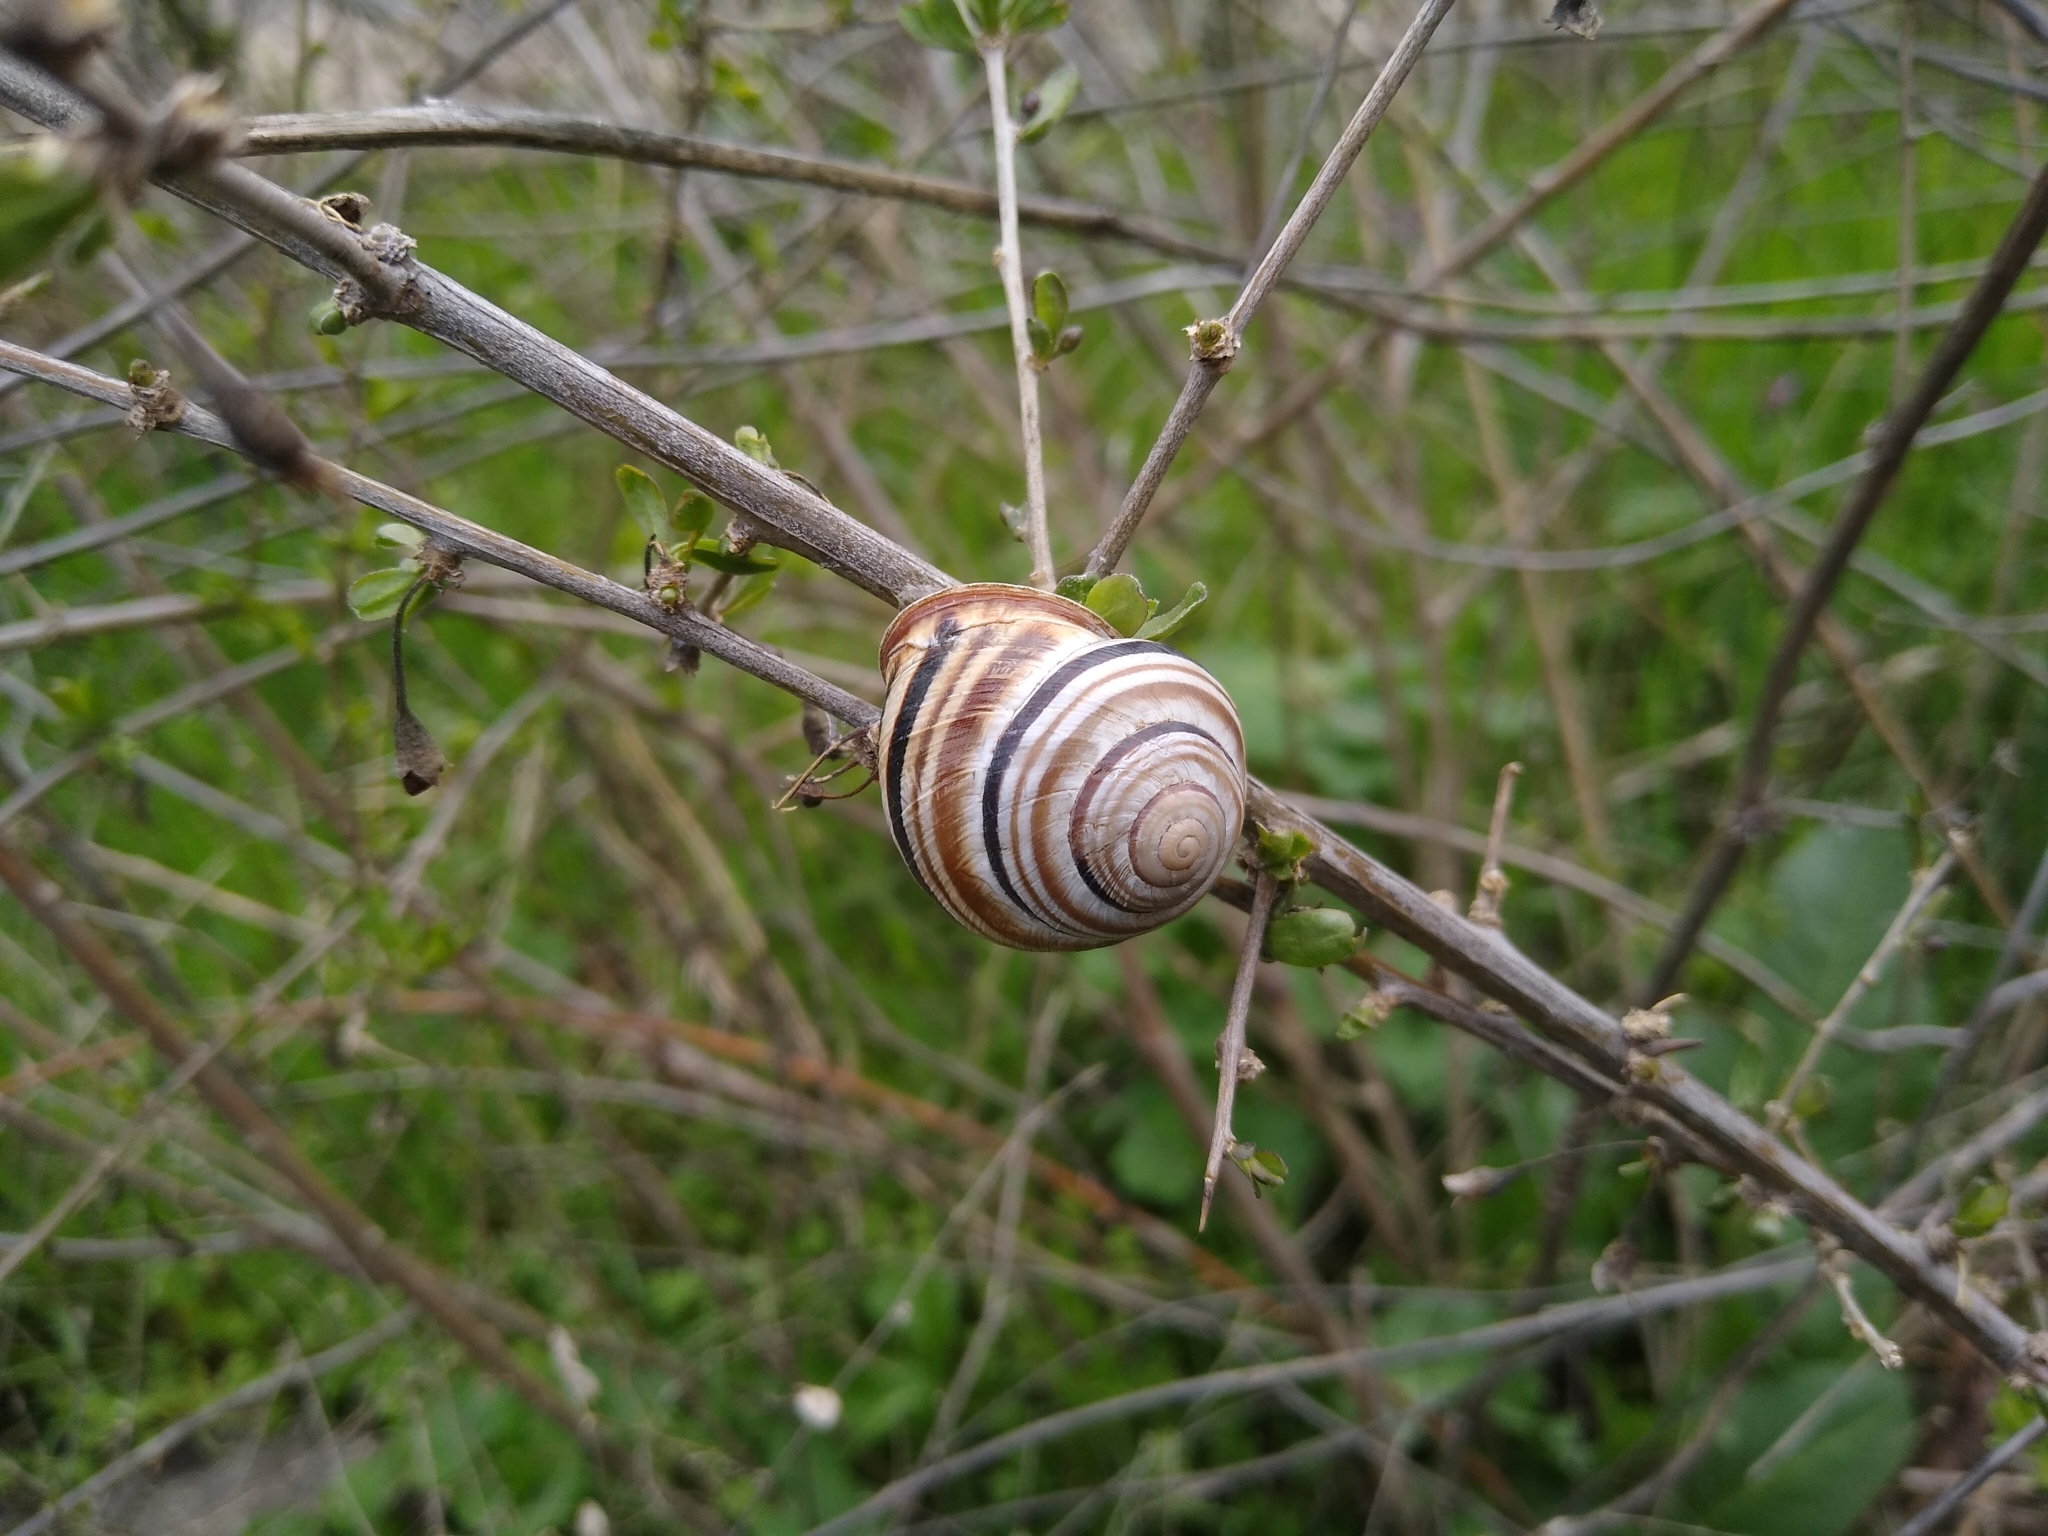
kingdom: Animalia
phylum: Mollusca
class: Gastropoda
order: Stylommatophora
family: Helicidae
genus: Caucasotachea
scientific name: Caucasotachea vindobonensis
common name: European helicid land snail
